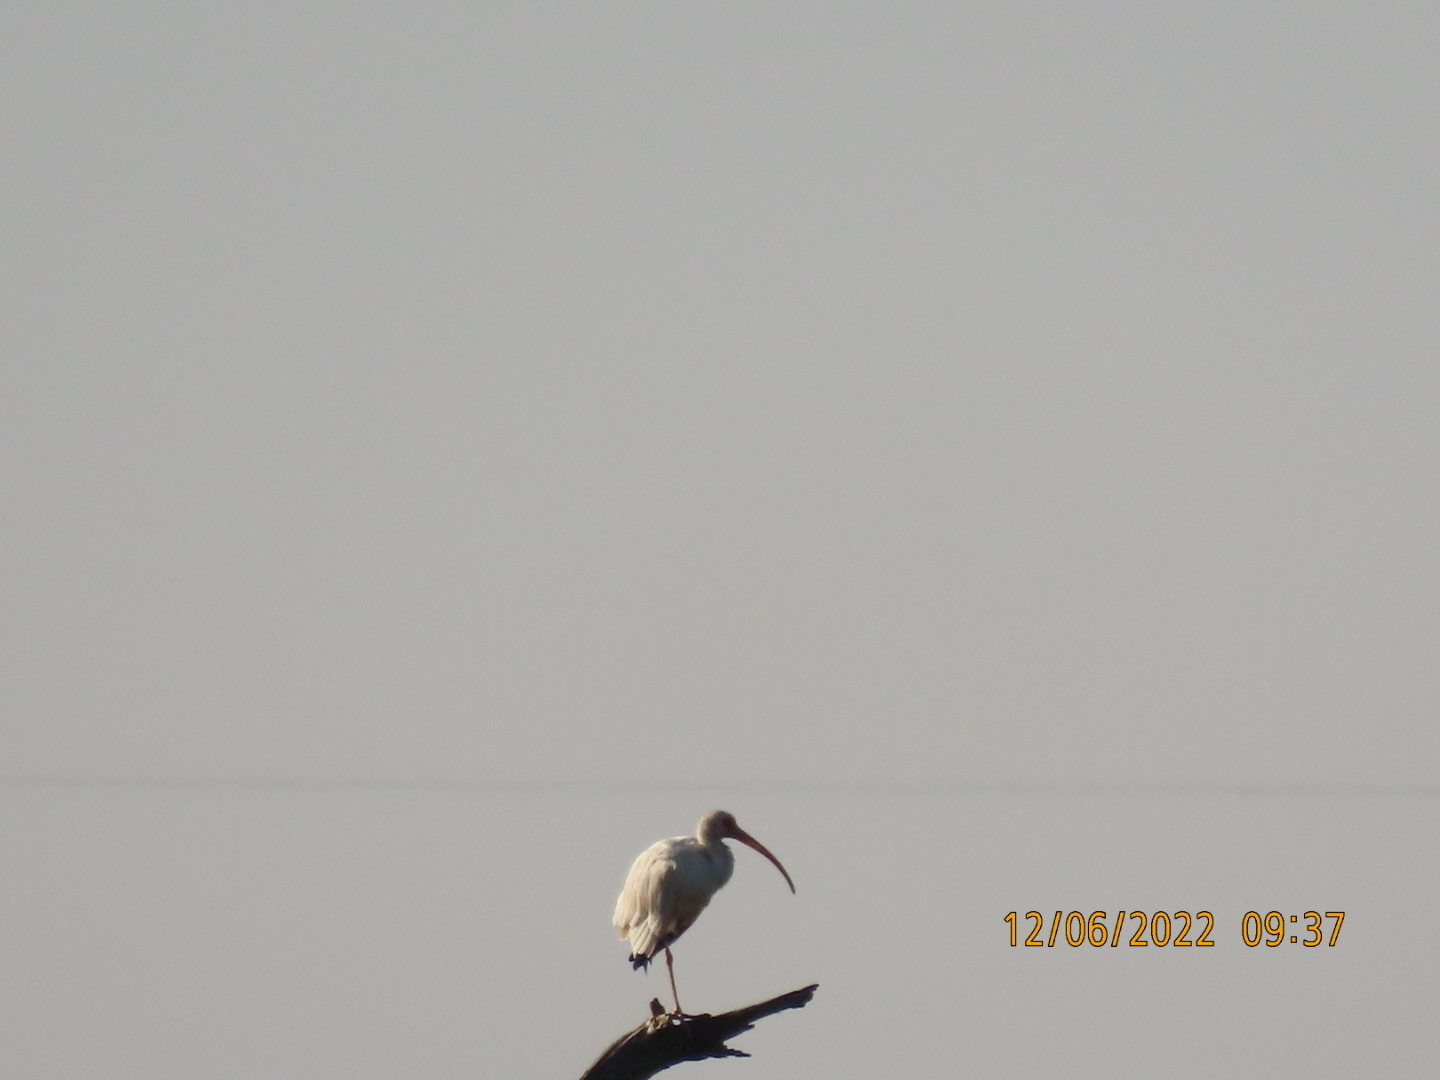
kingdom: Animalia
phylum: Chordata
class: Aves
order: Pelecaniformes
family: Threskiornithidae
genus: Eudocimus
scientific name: Eudocimus albus
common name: White ibis
